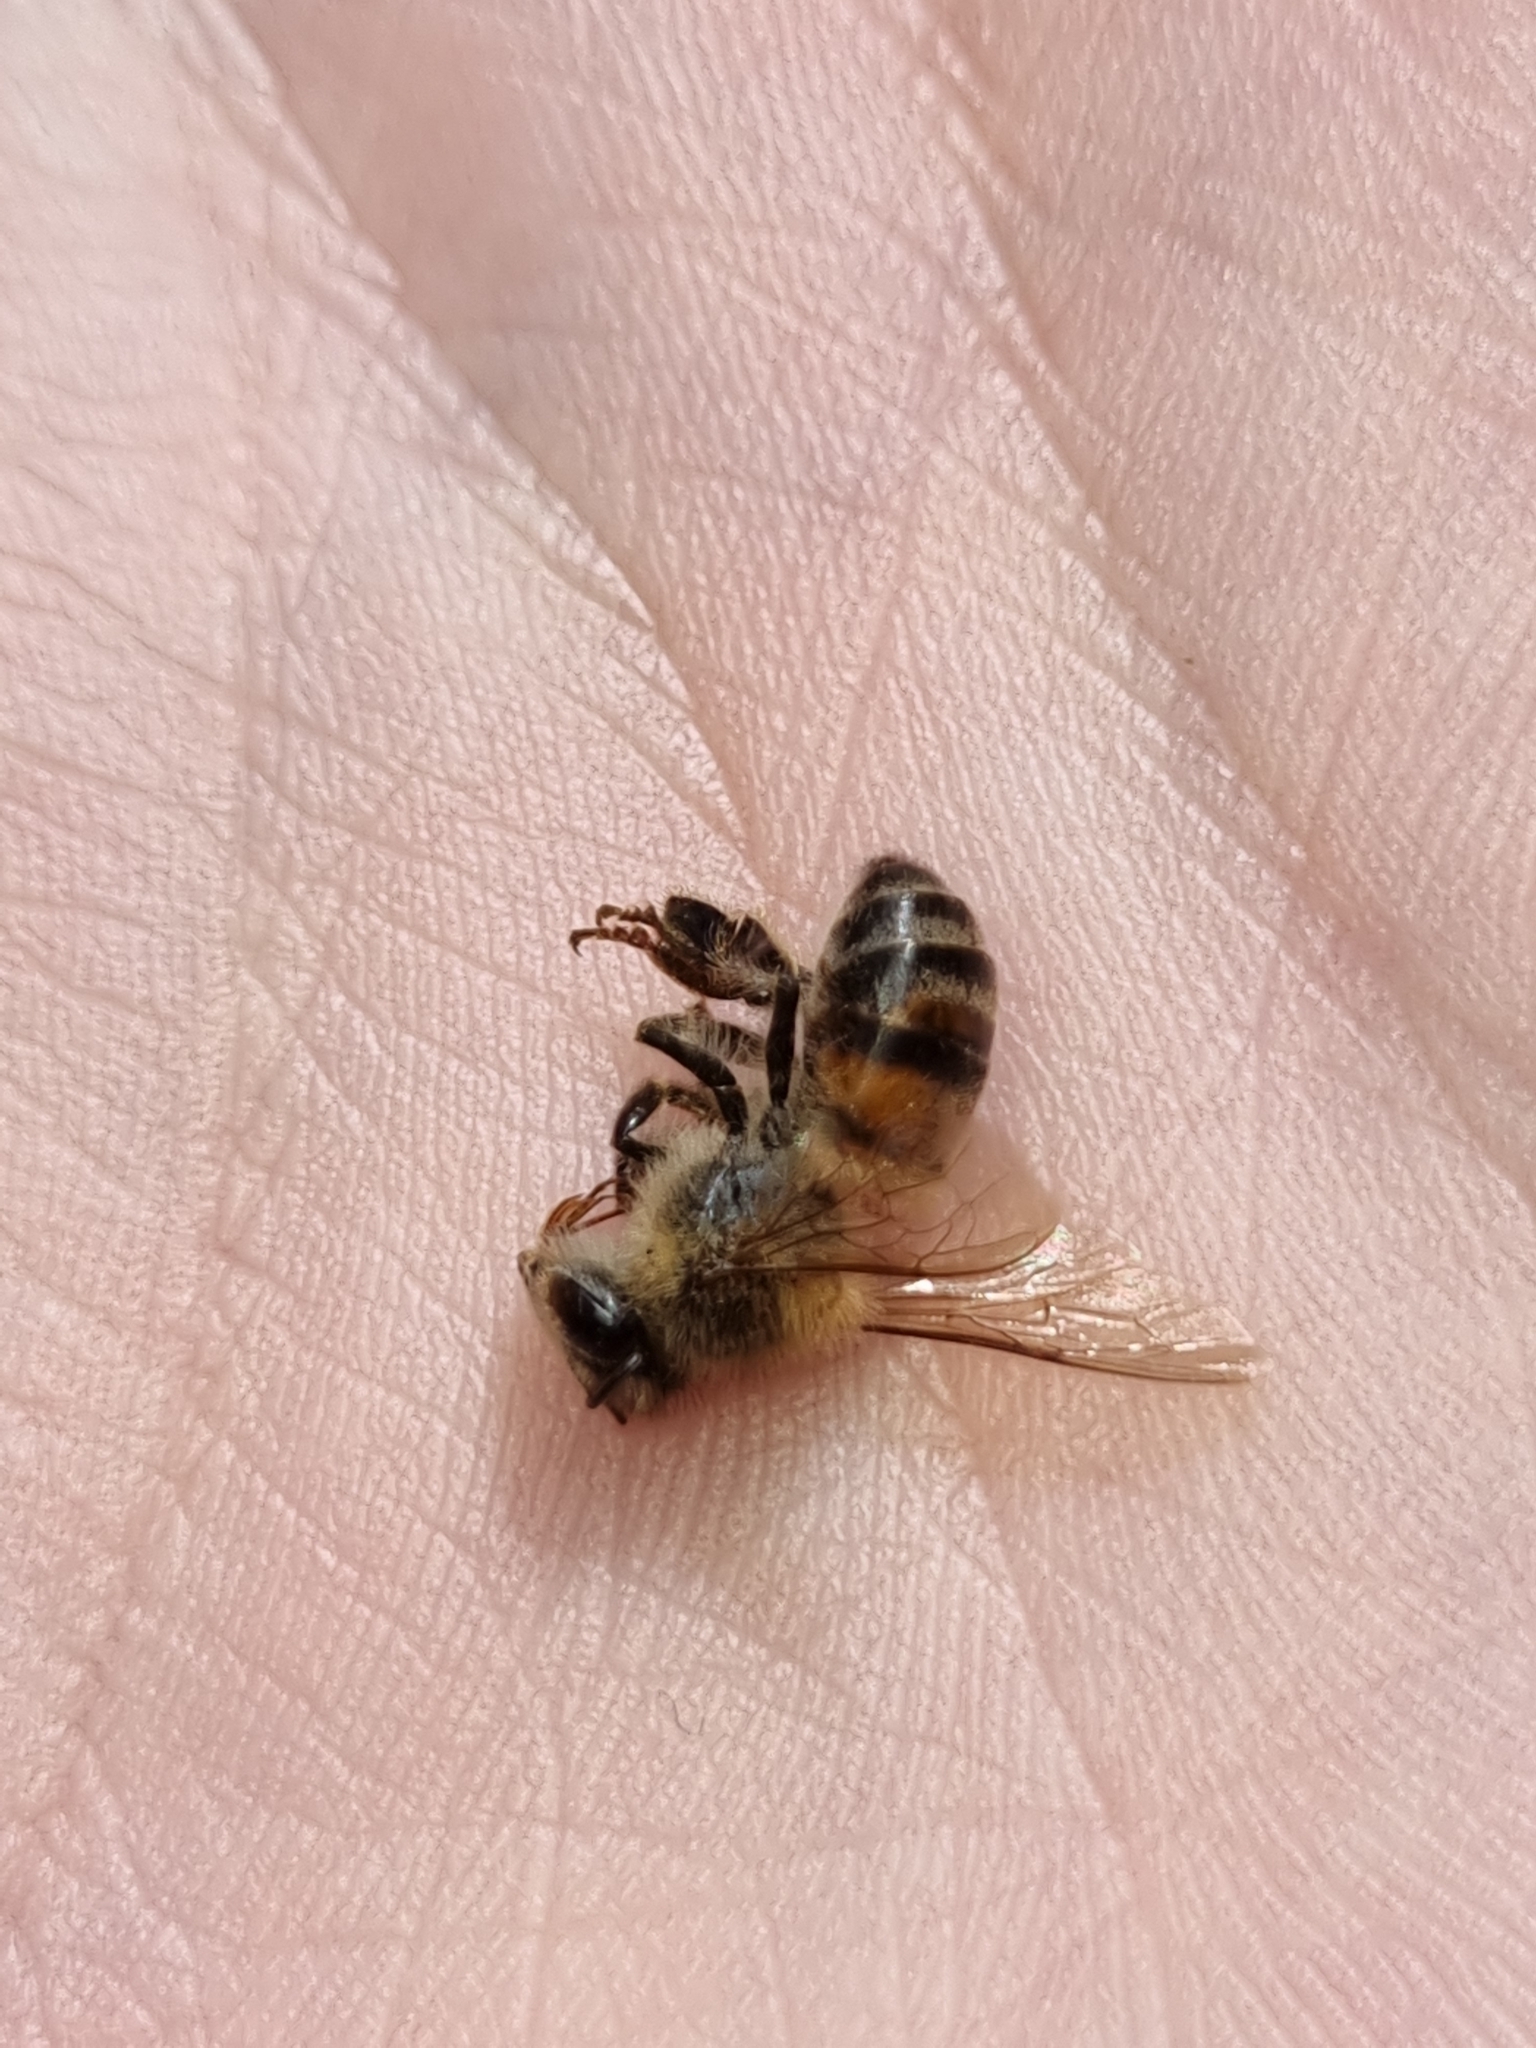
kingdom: Animalia
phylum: Arthropoda
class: Insecta
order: Hymenoptera
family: Apidae
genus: Apis
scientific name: Apis mellifera
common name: Honey bee
